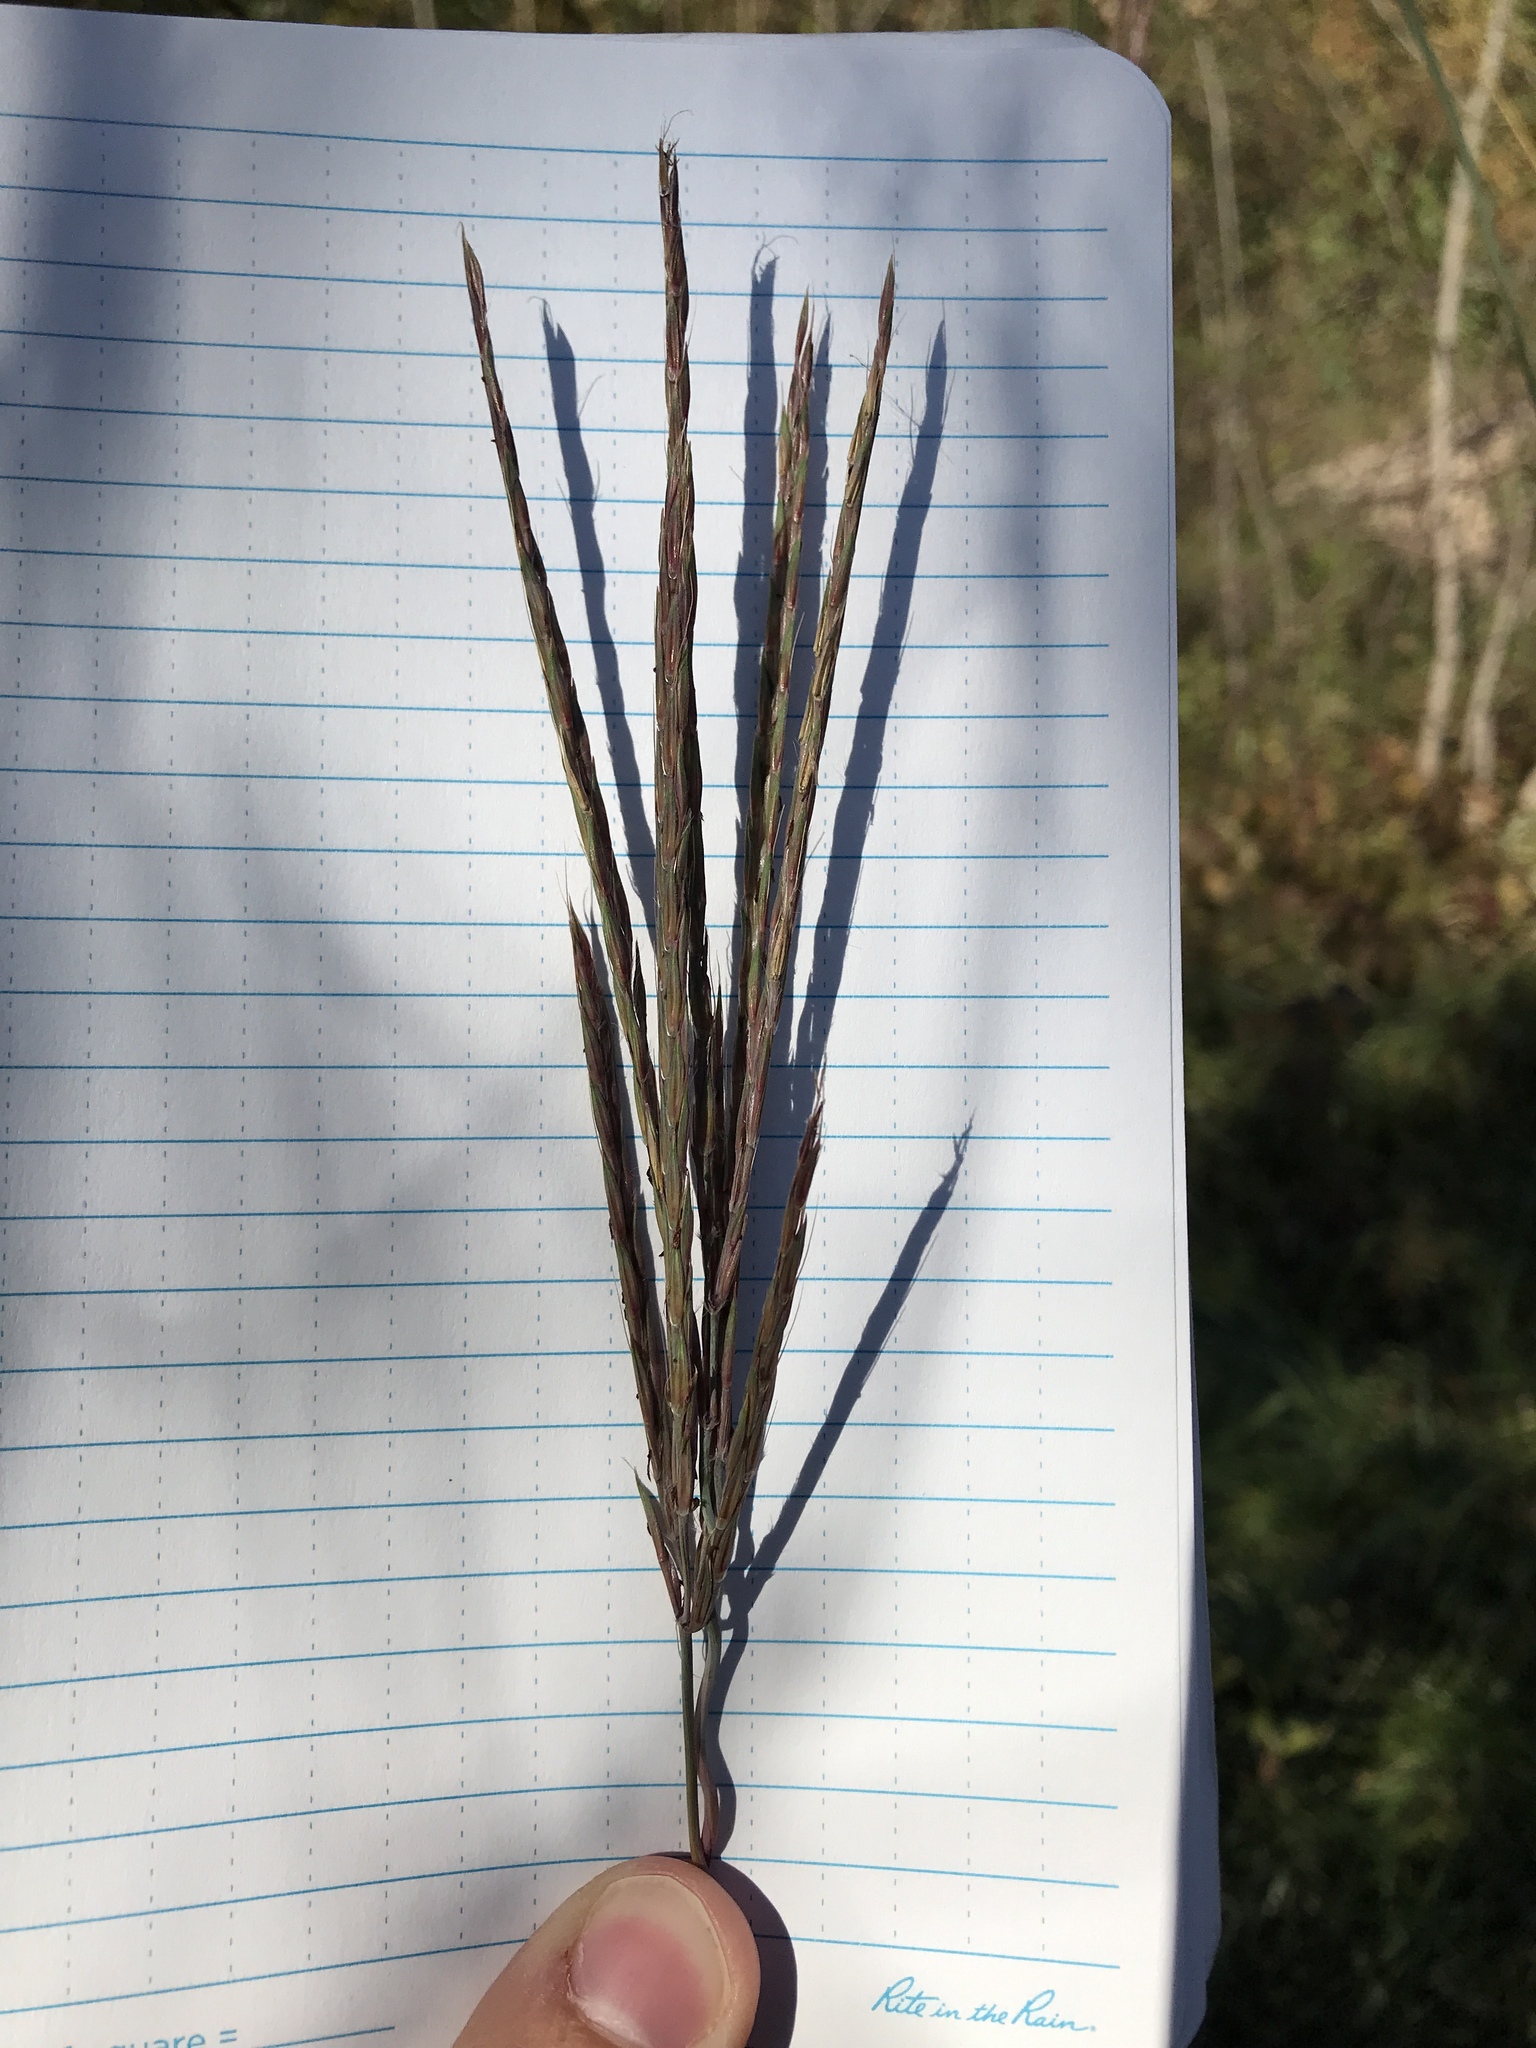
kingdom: Plantae
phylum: Tracheophyta
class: Liliopsida
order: Poales
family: Poaceae
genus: Andropogon
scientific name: Andropogon gerardi
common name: Big bluestem
